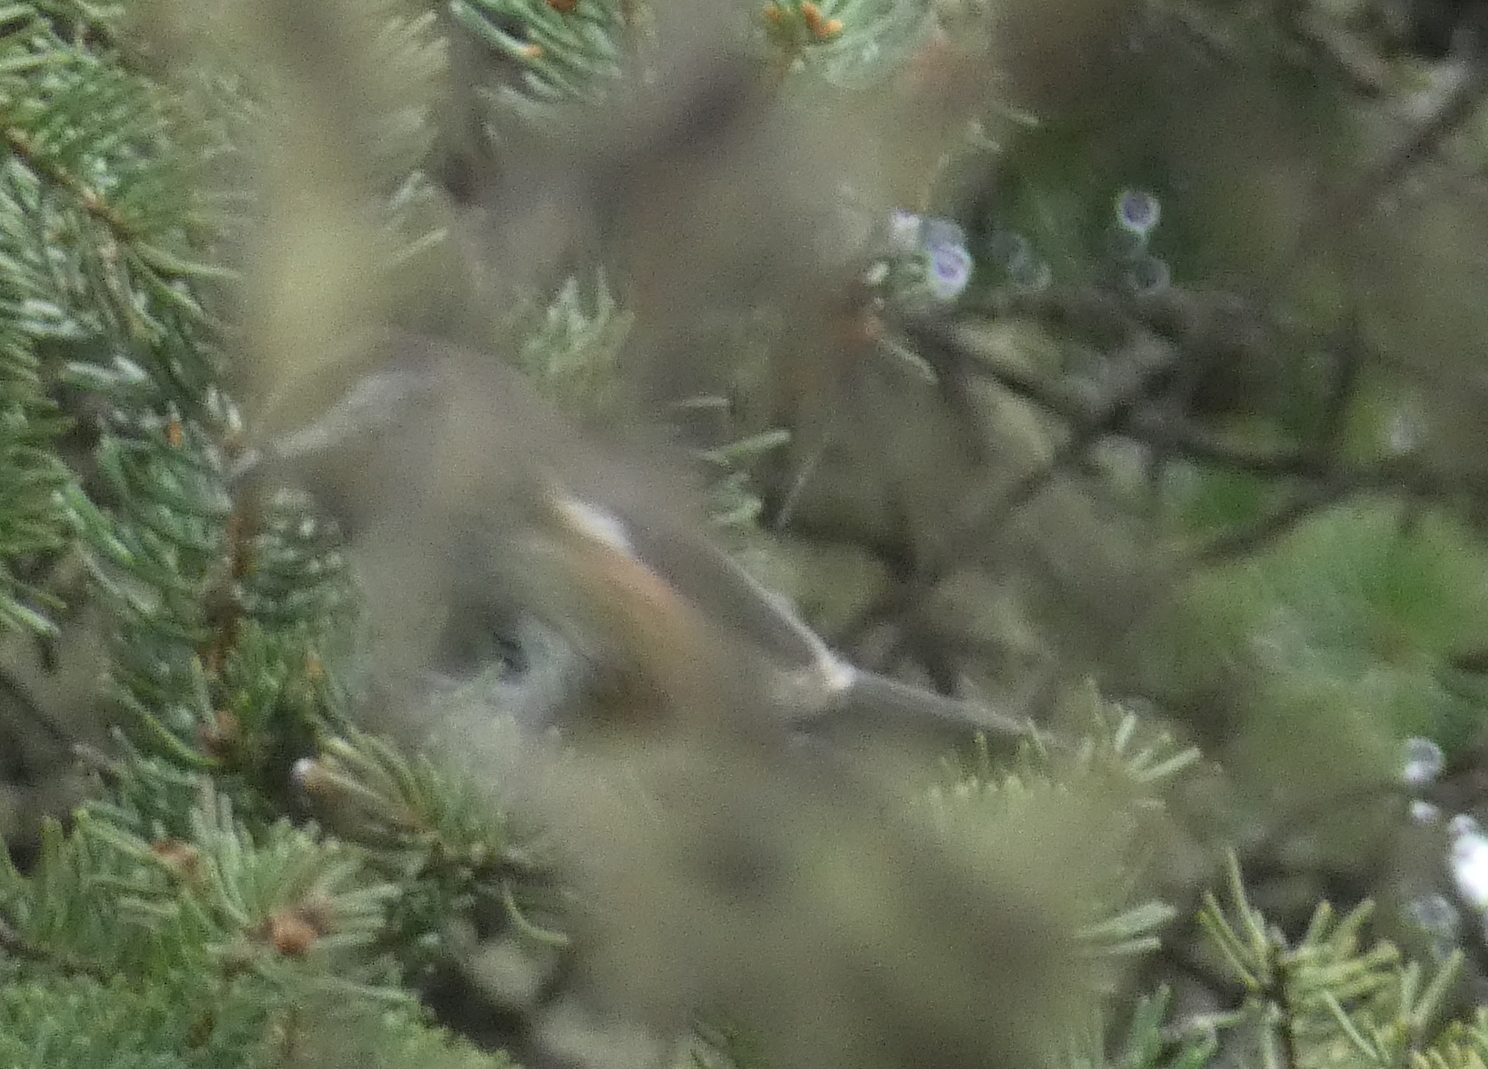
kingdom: Animalia
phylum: Chordata
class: Aves
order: Passeriformes
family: Paridae
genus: Poecile
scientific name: Poecile hudsonicus
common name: Boreal chickadee
